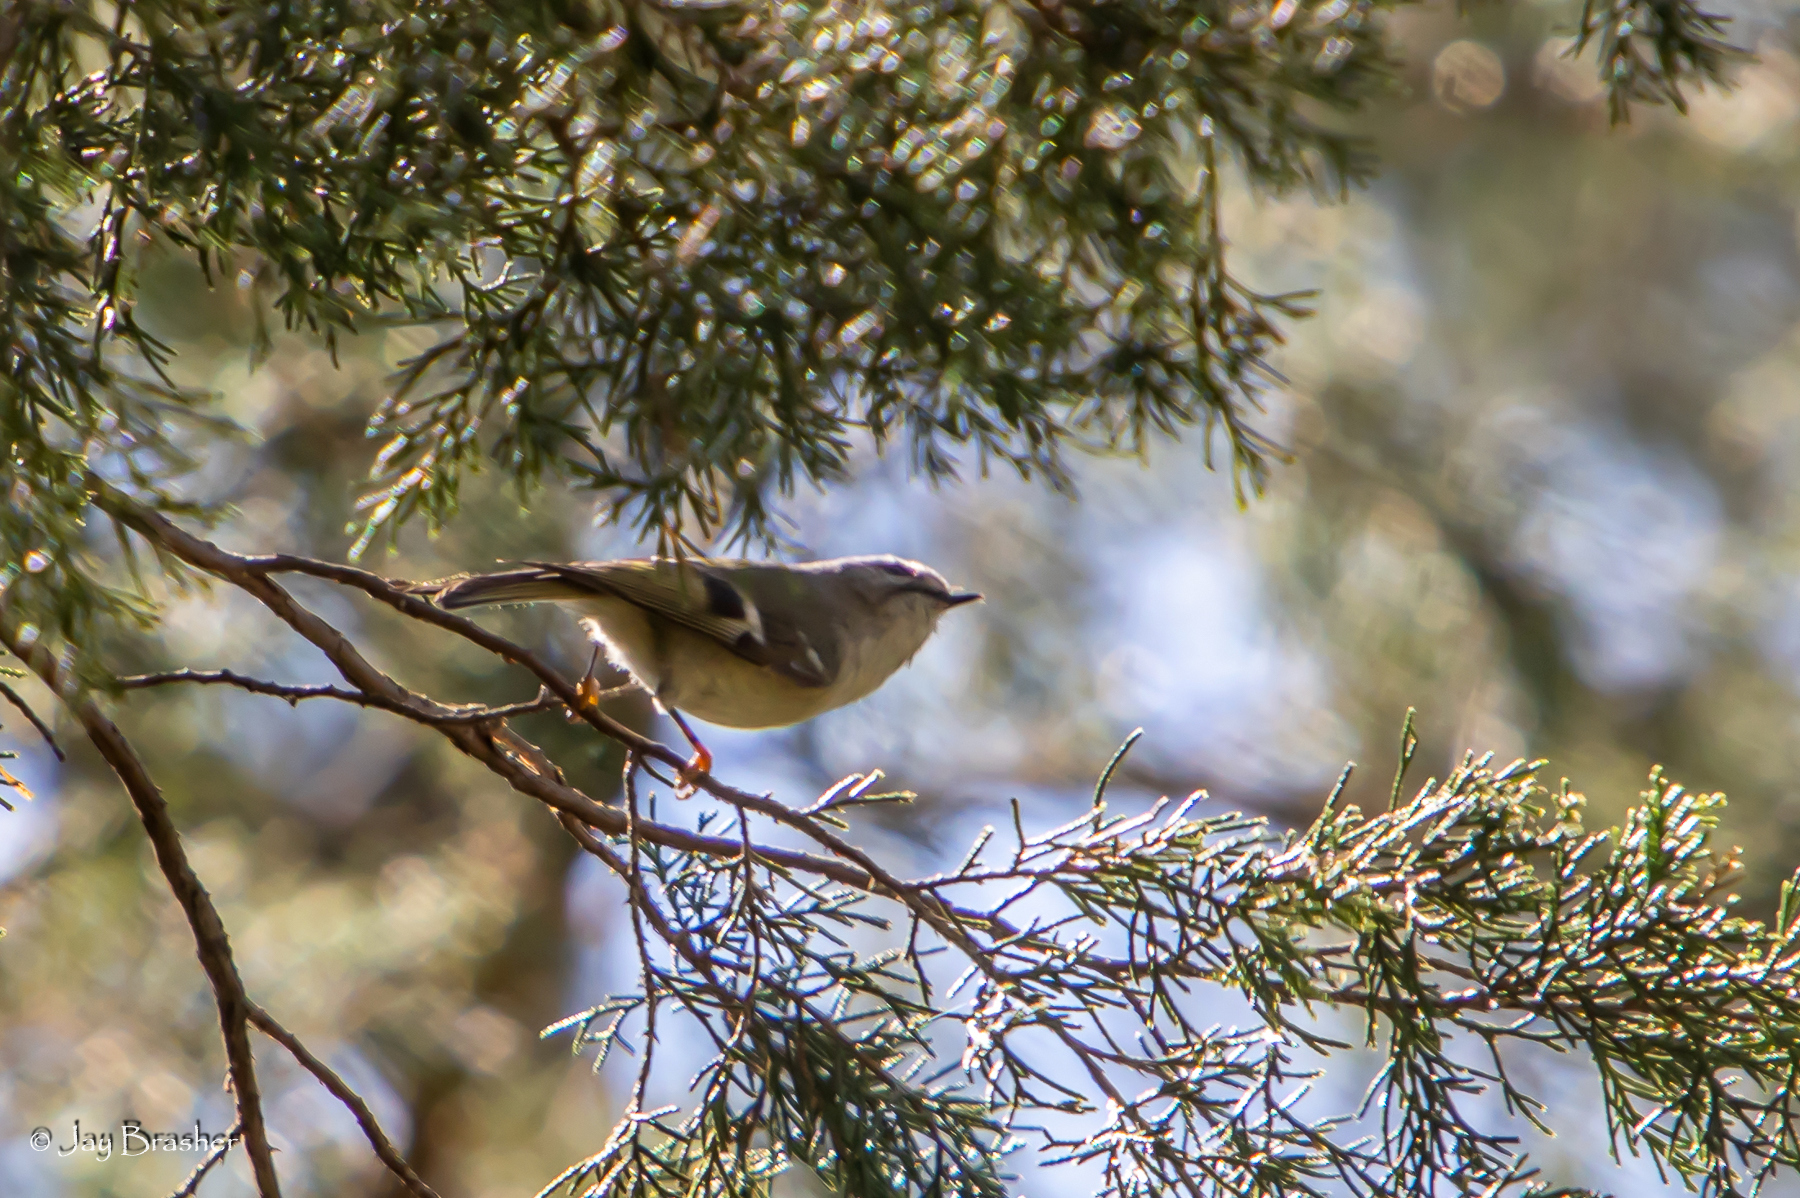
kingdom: Animalia
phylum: Chordata
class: Aves
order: Passeriformes
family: Regulidae
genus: Regulus
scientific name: Regulus satrapa
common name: Golden-crowned kinglet
